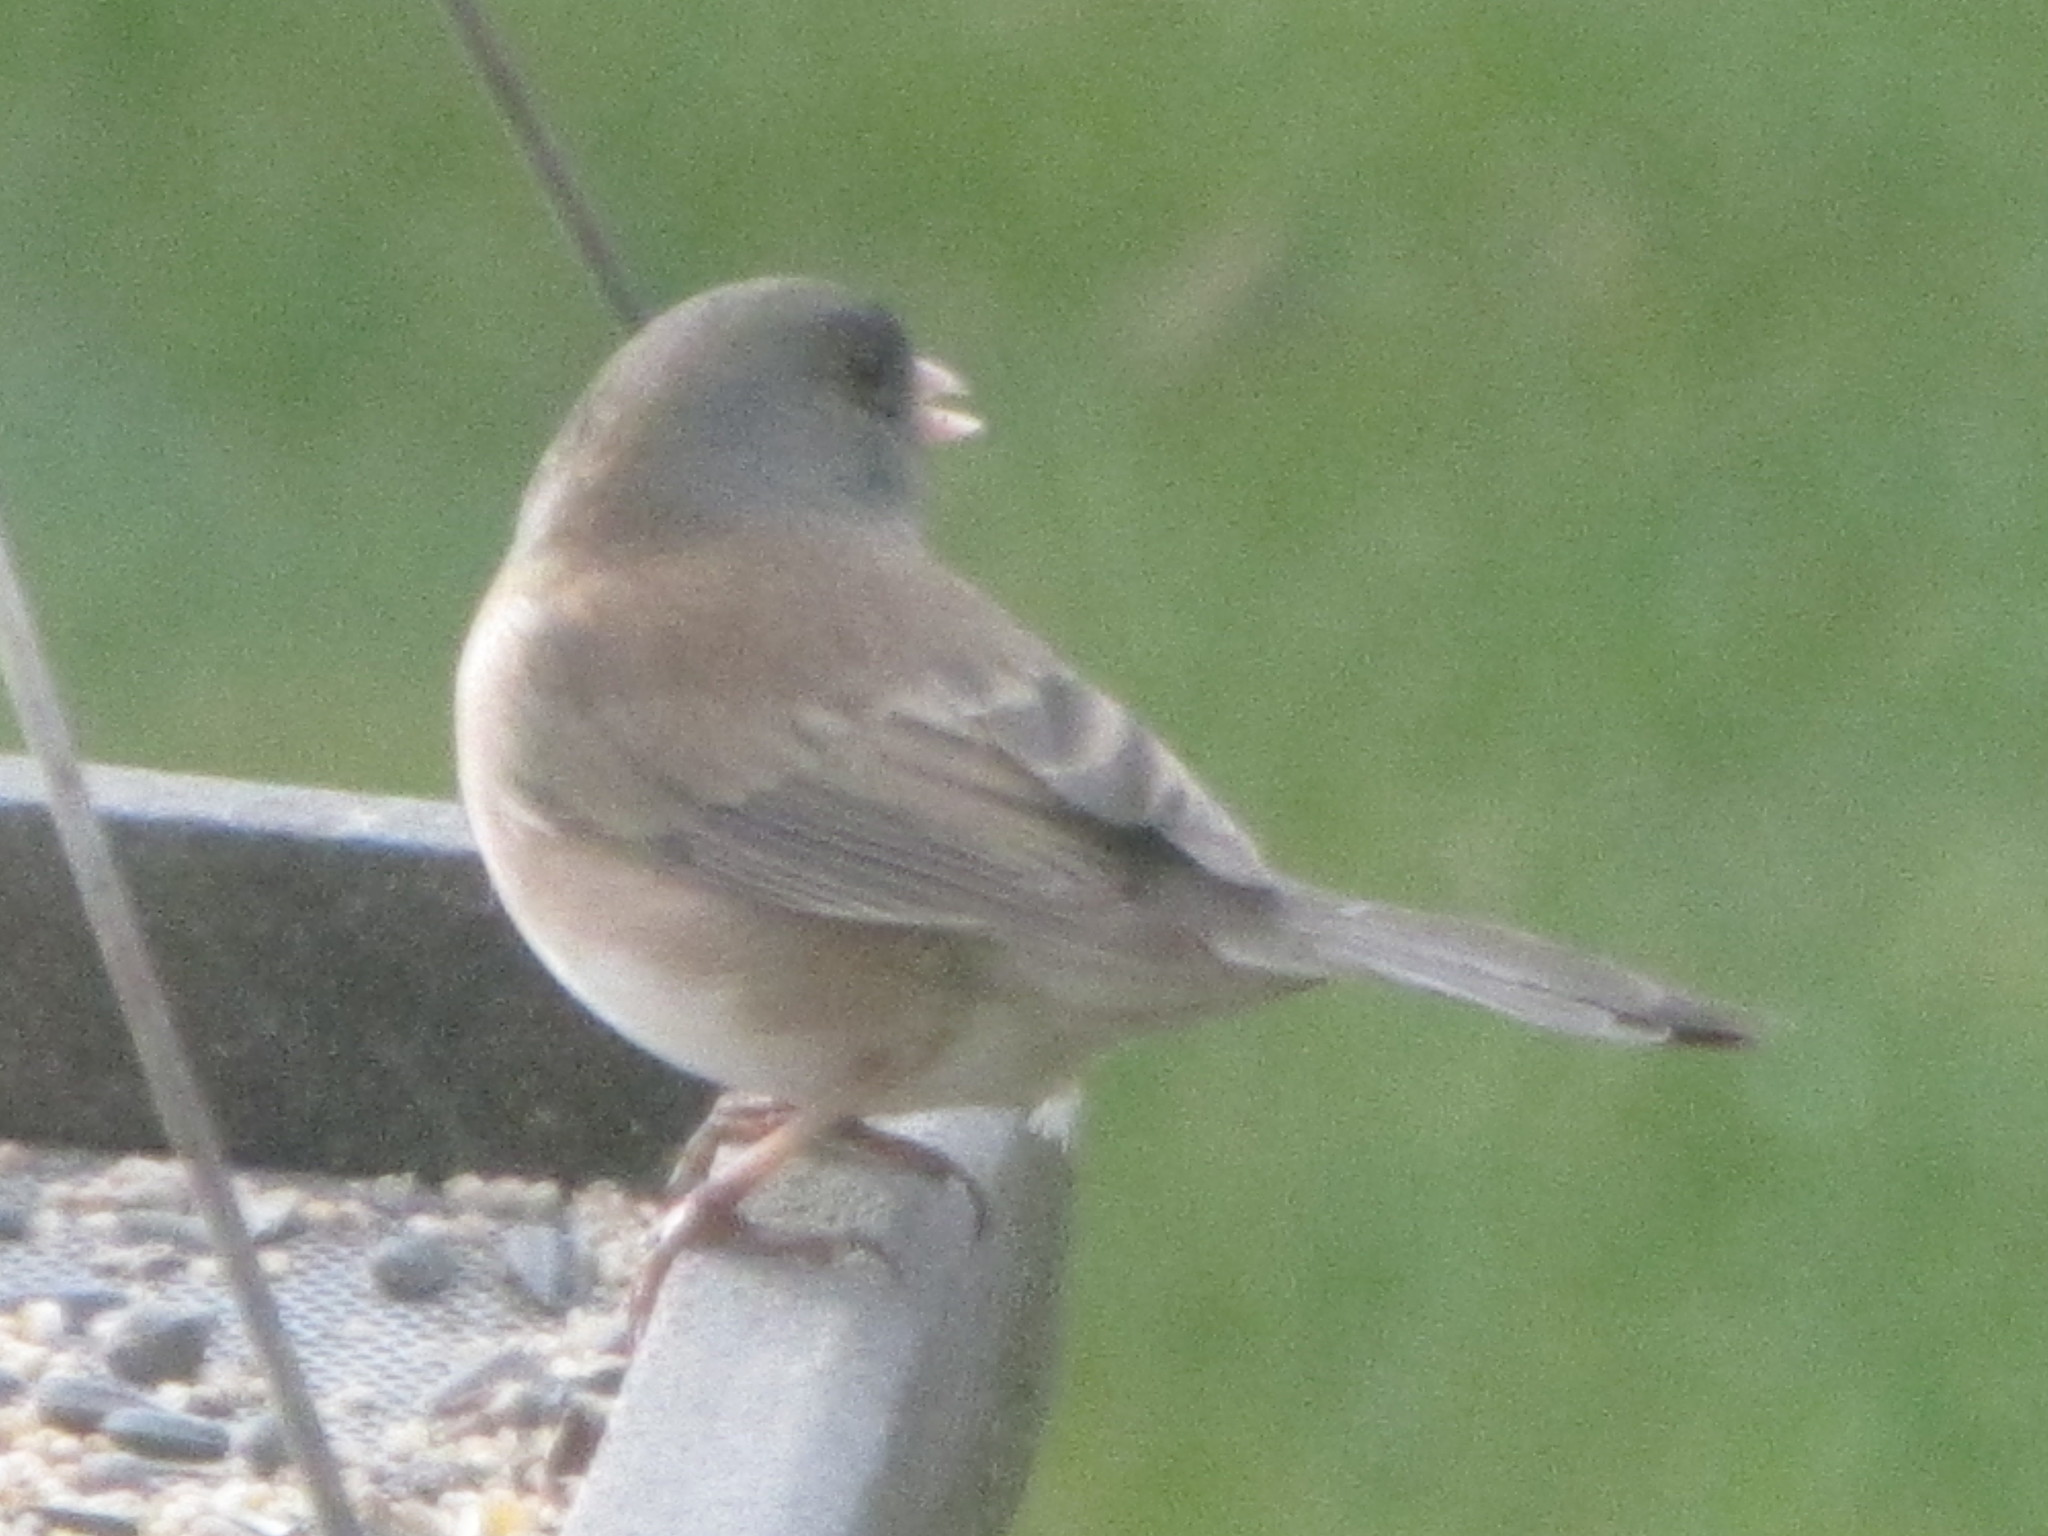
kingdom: Animalia
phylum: Chordata
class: Aves
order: Passeriformes
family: Passerellidae
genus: Junco
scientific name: Junco hyemalis
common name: Dark-eyed junco
